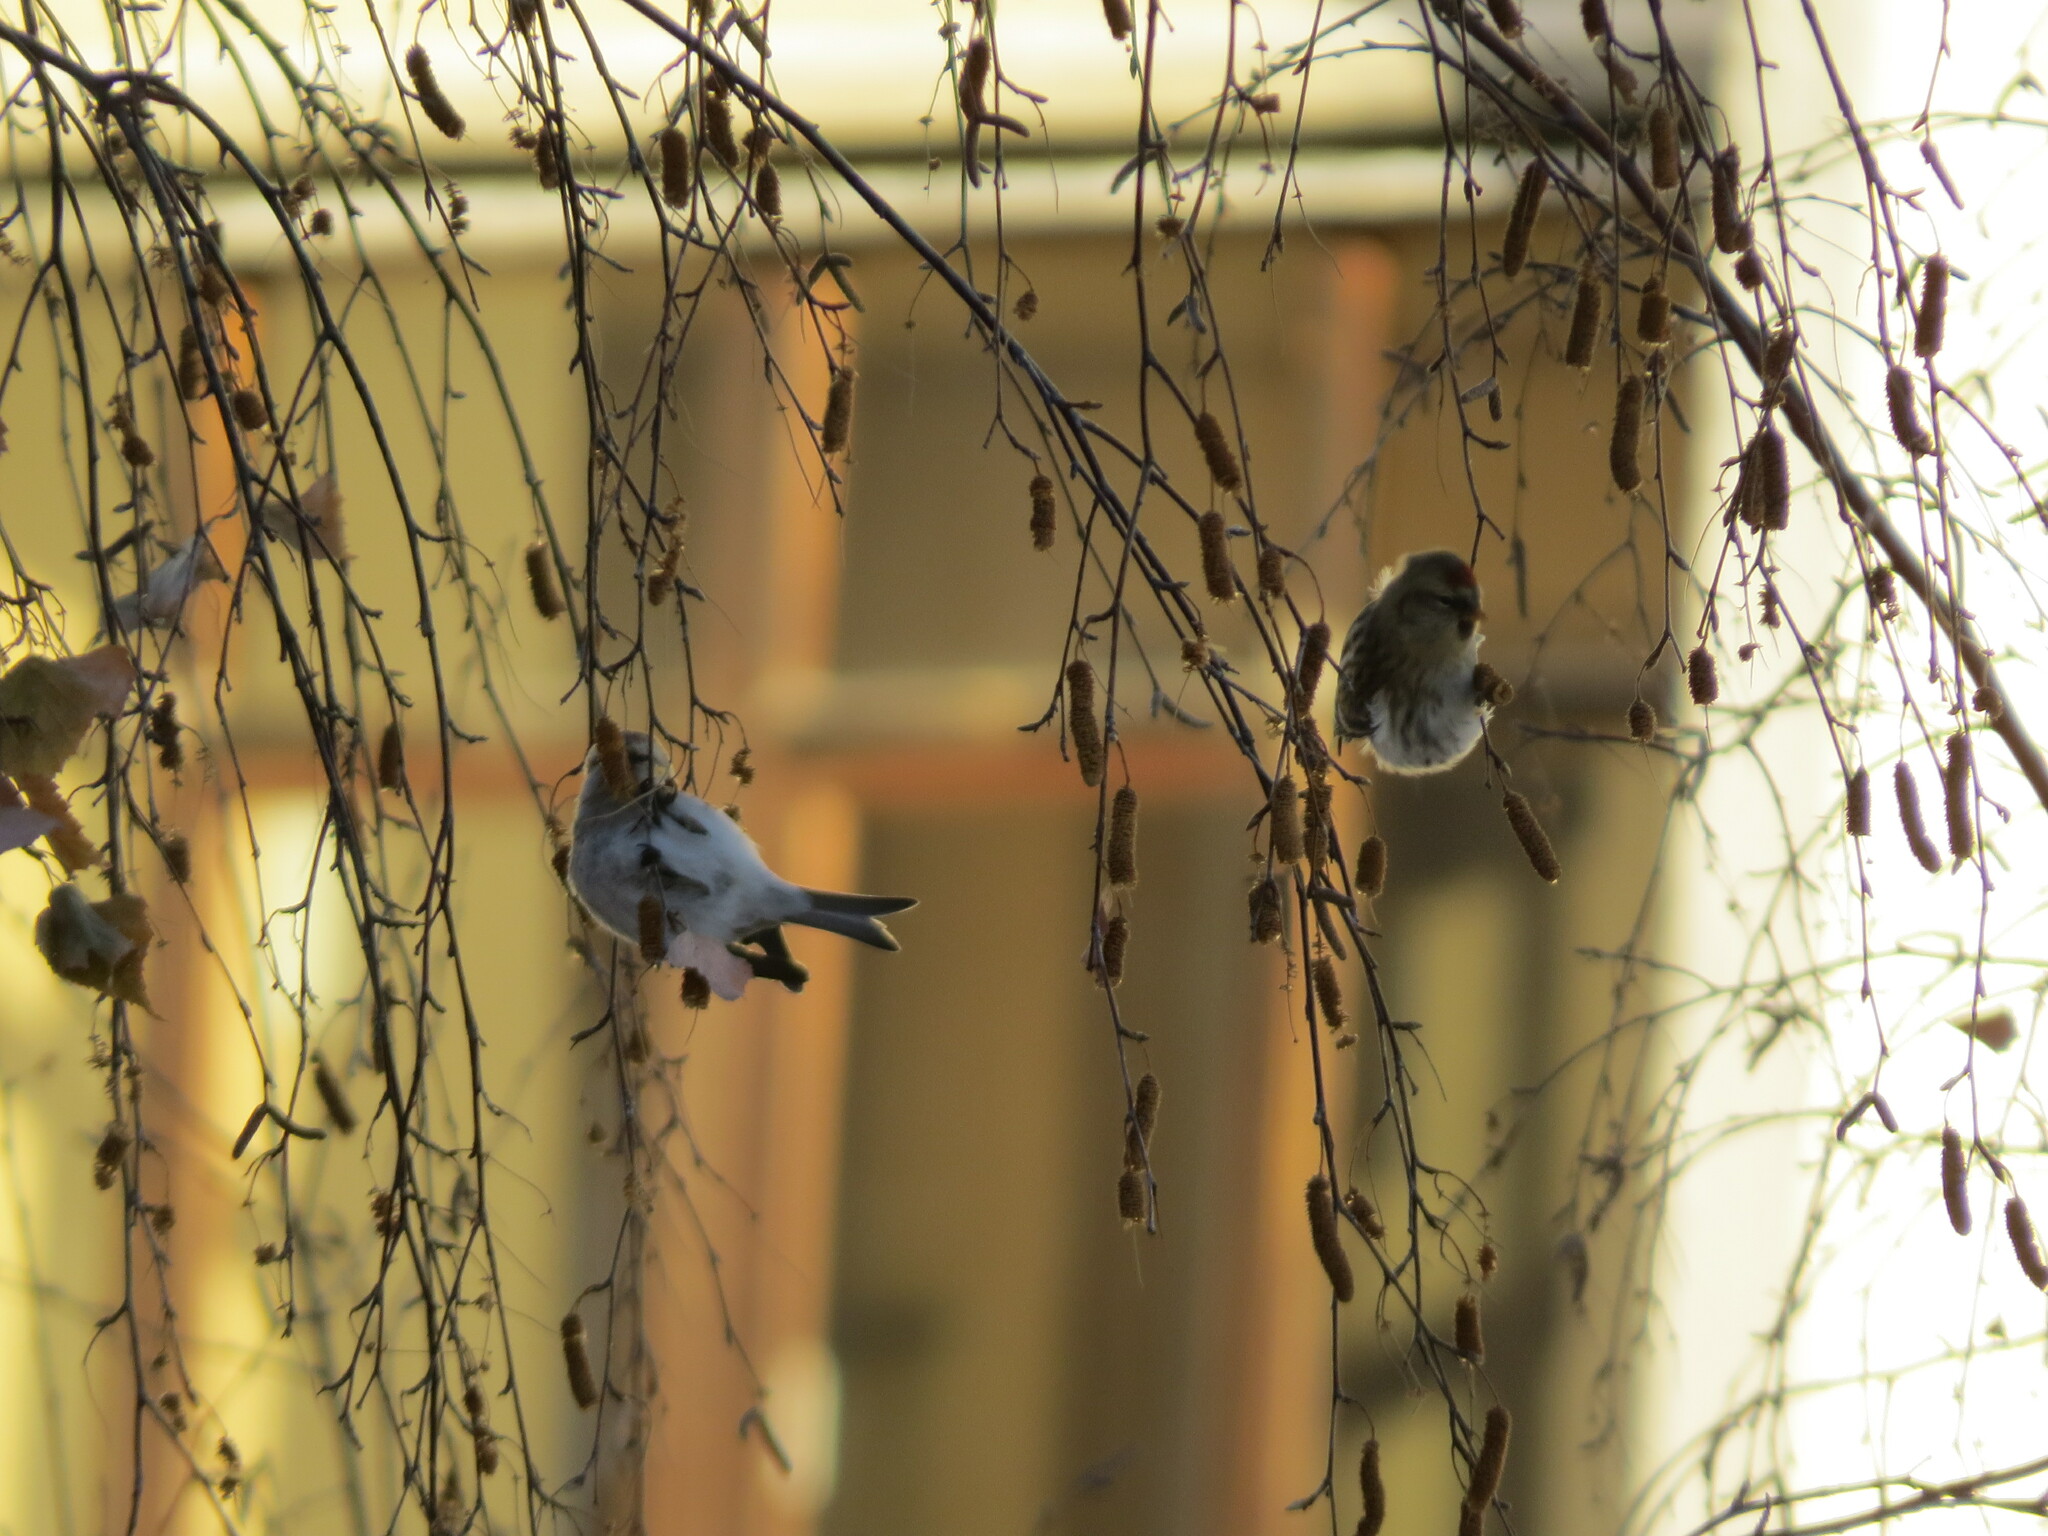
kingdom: Animalia
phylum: Chordata
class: Aves
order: Passeriformes
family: Fringillidae
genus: Acanthis
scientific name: Acanthis hornemanni
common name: Arctic redpoll
